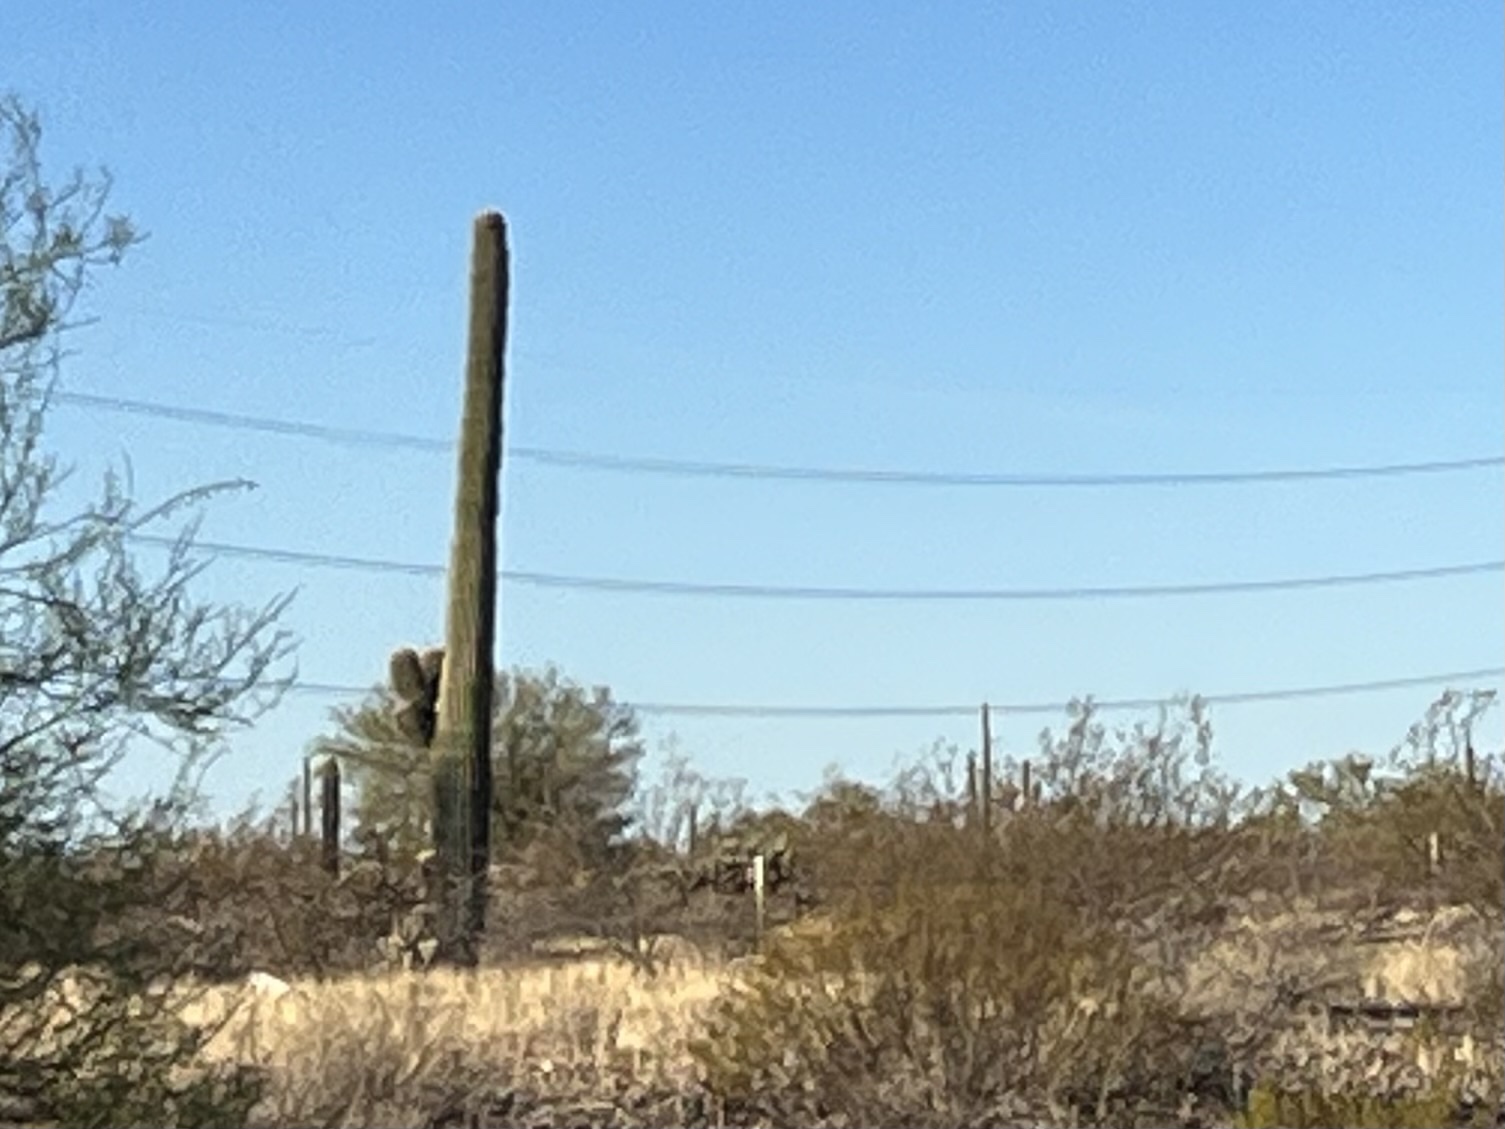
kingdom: Plantae
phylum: Tracheophyta
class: Magnoliopsida
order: Caryophyllales
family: Cactaceae
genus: Carnegiea
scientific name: Carnegiea gigantea
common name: Saguaro
